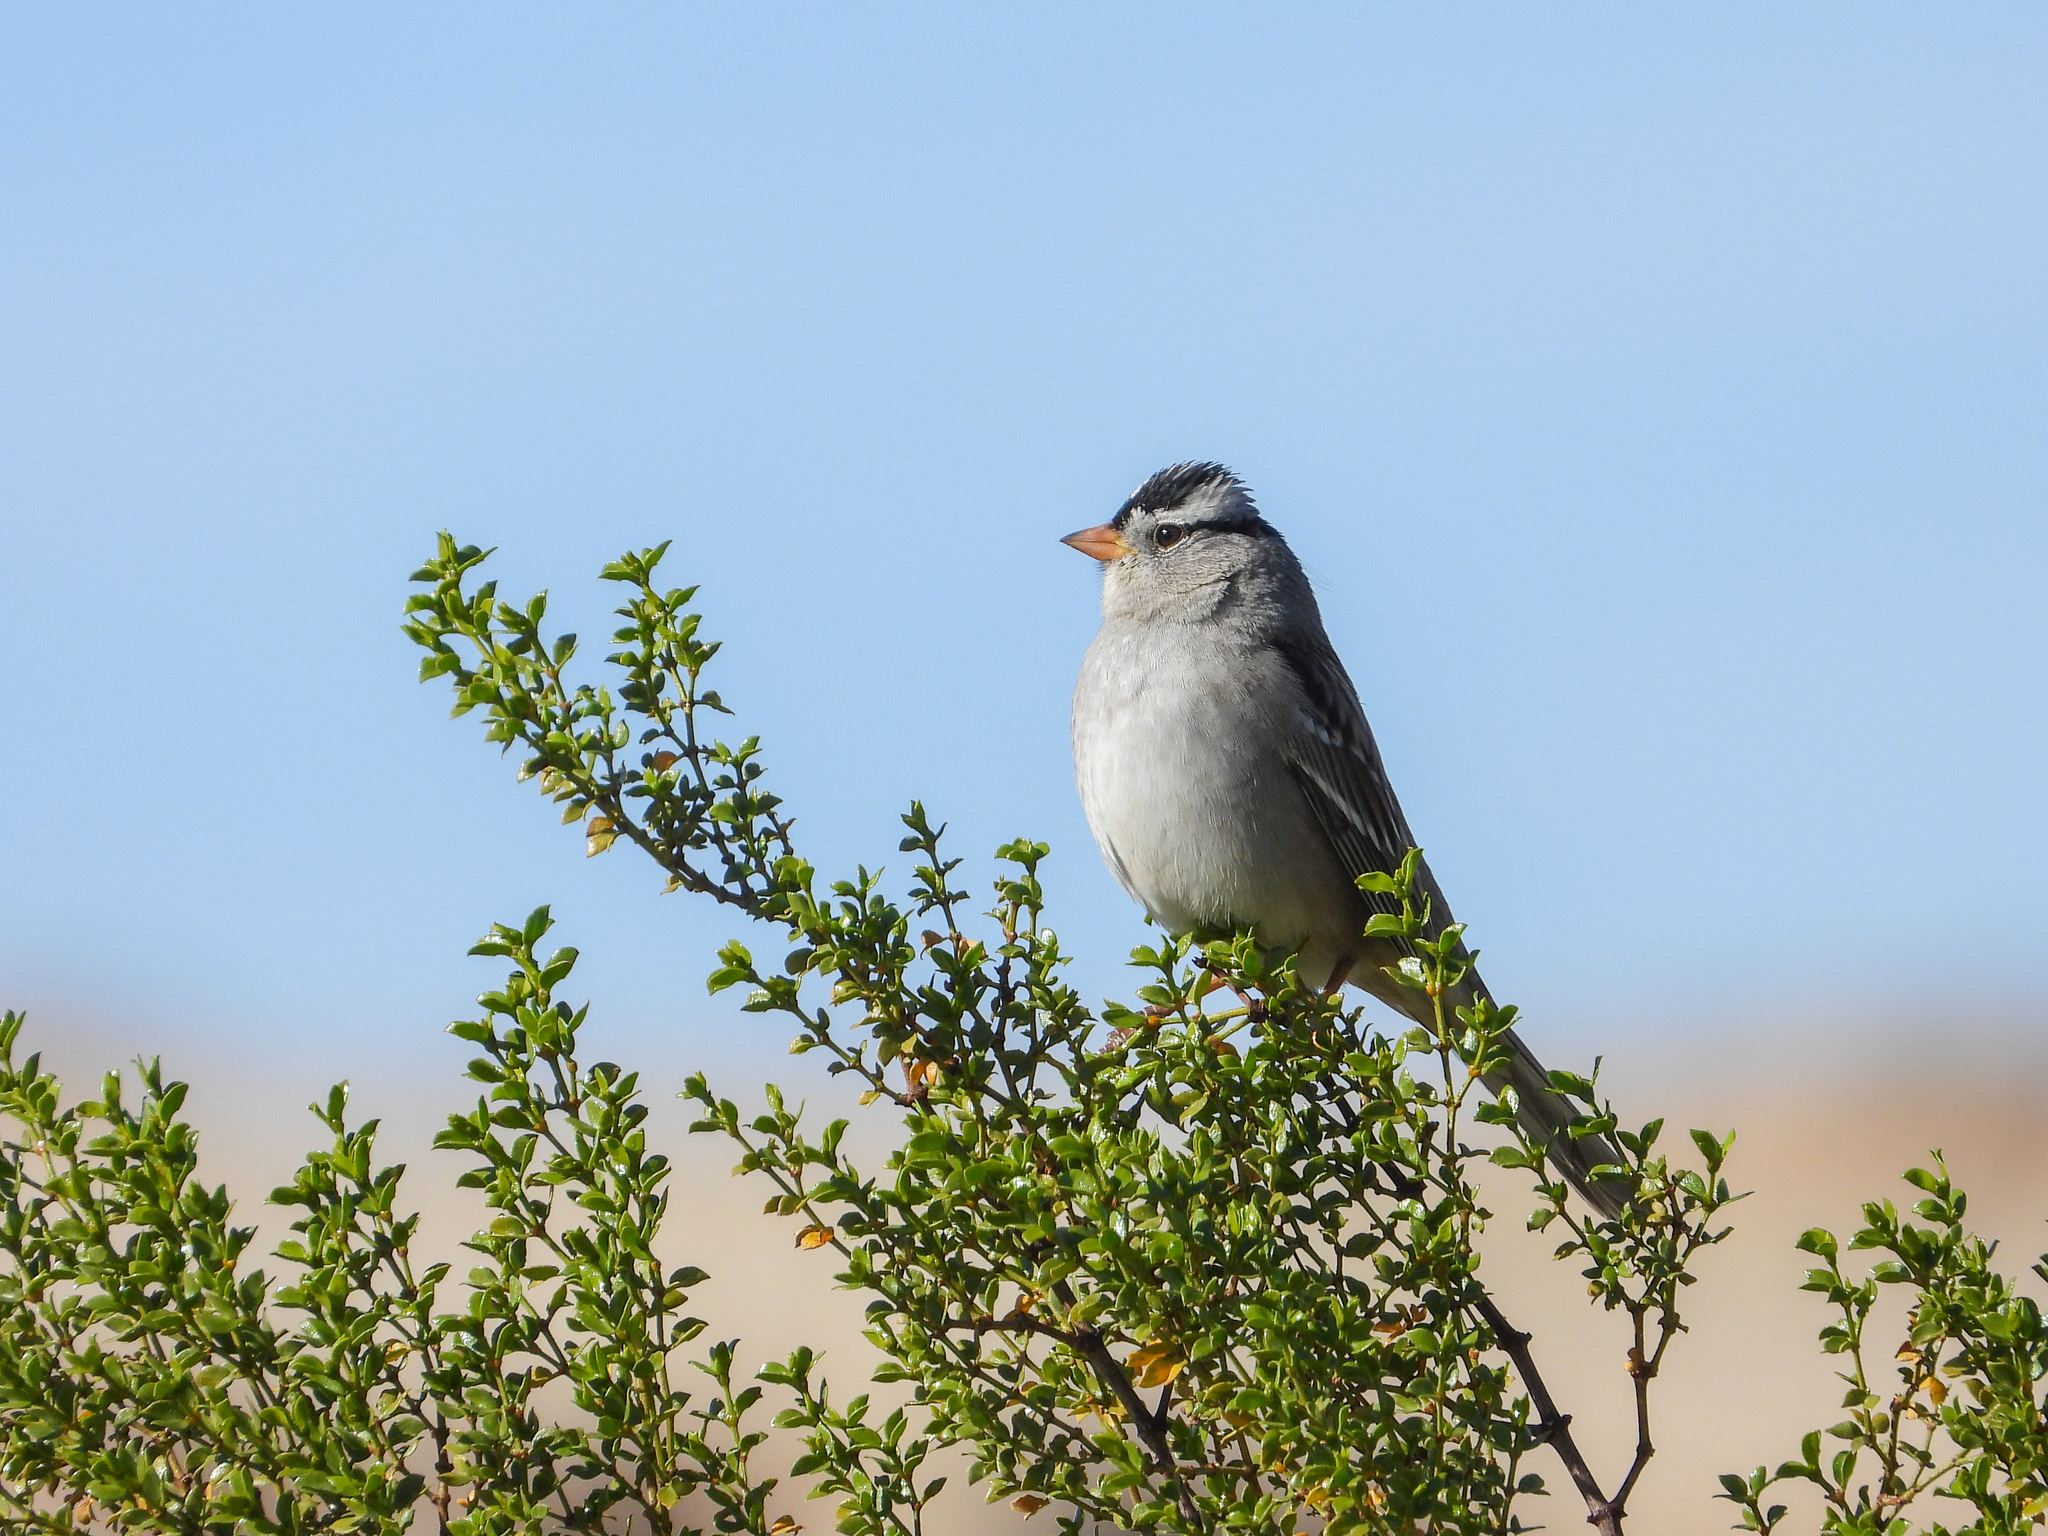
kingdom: Animalia
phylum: Chordata
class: Aves
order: Passeriformes
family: Passerellidae
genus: Zonotrichia
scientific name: Zonotrichia leucophrys
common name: White-crowned sparrow
